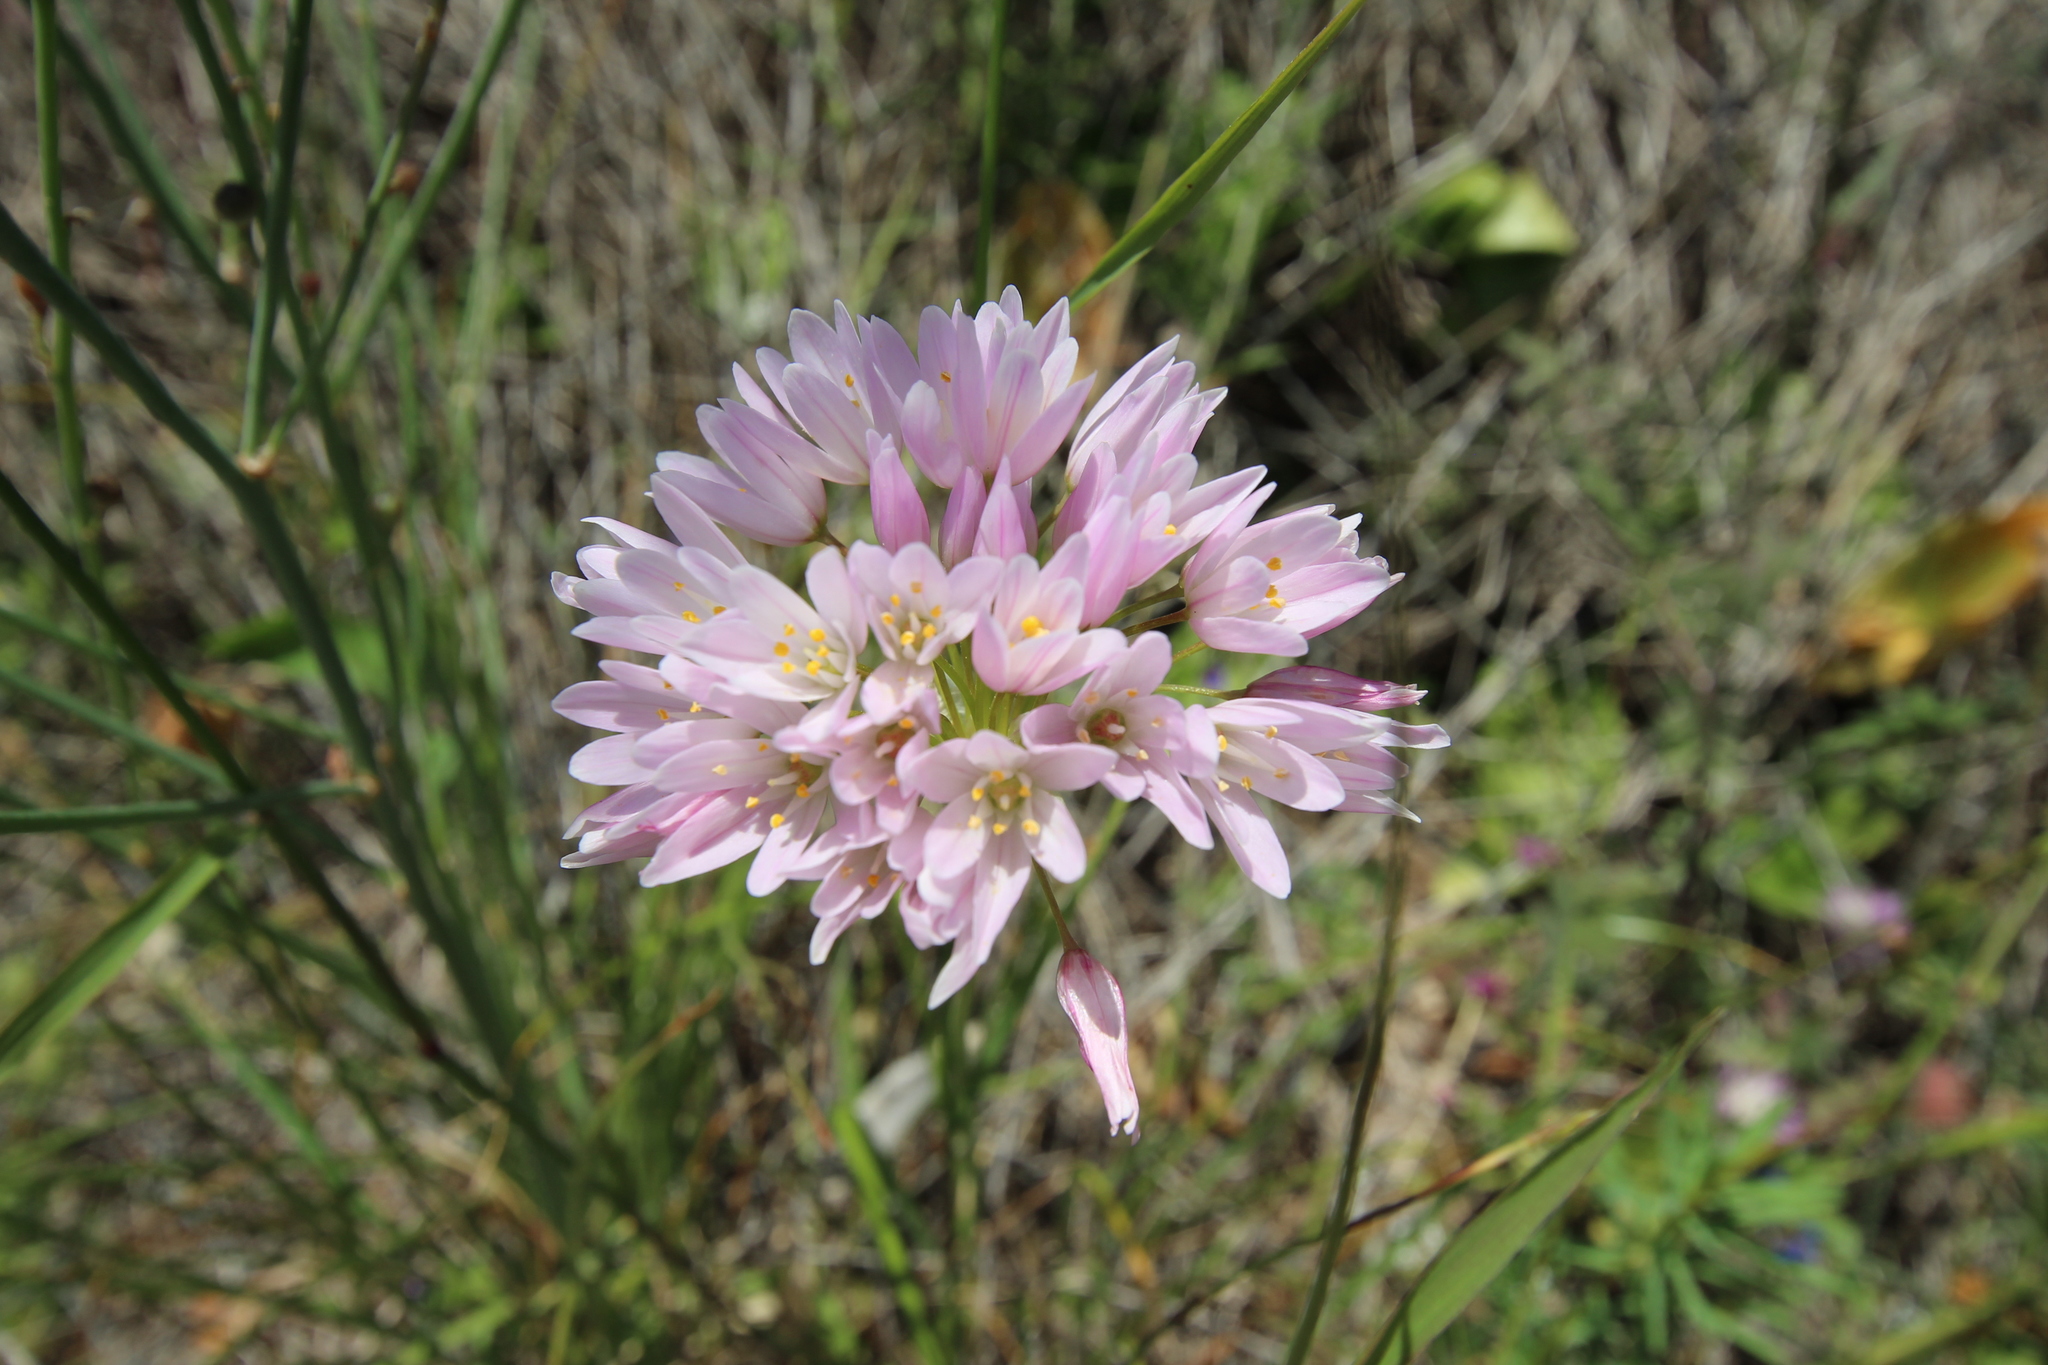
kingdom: Plantae
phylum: Tracheophyta
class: Liliopsida
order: Asparagales
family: Amaryllidaceae
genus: Allium
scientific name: Allium roseum
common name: Rosy garlic
